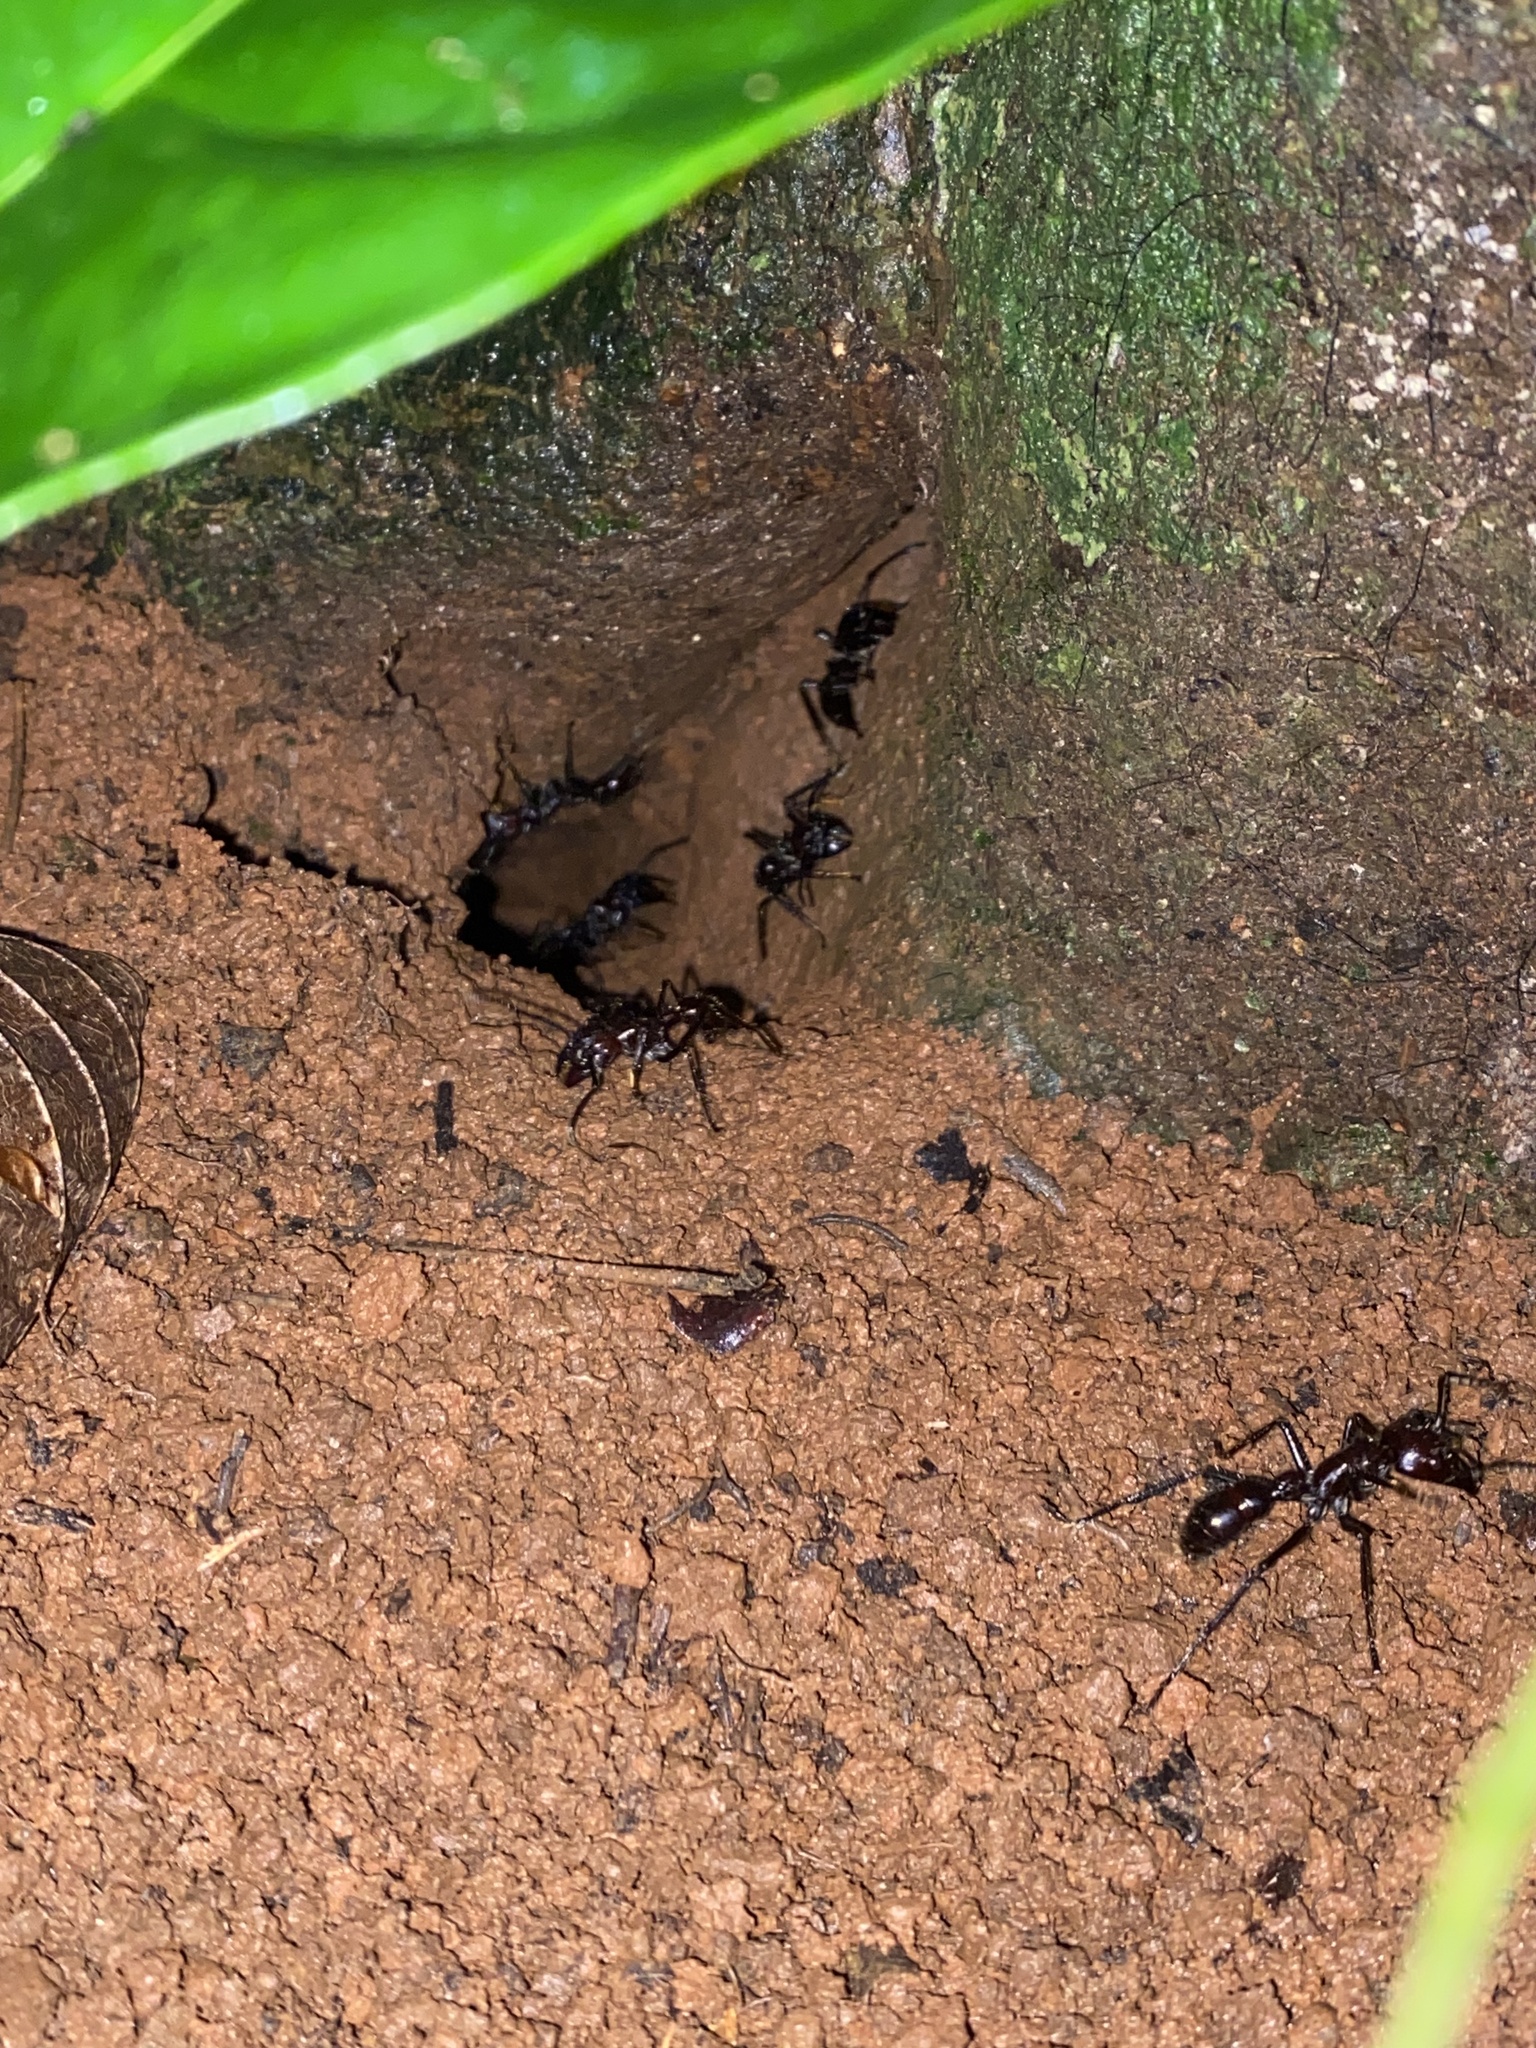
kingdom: Animalia
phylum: Arthropoda
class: Insecta
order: Hymenoptera
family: Formicidae
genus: Paraponera
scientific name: Paraponera clavata
